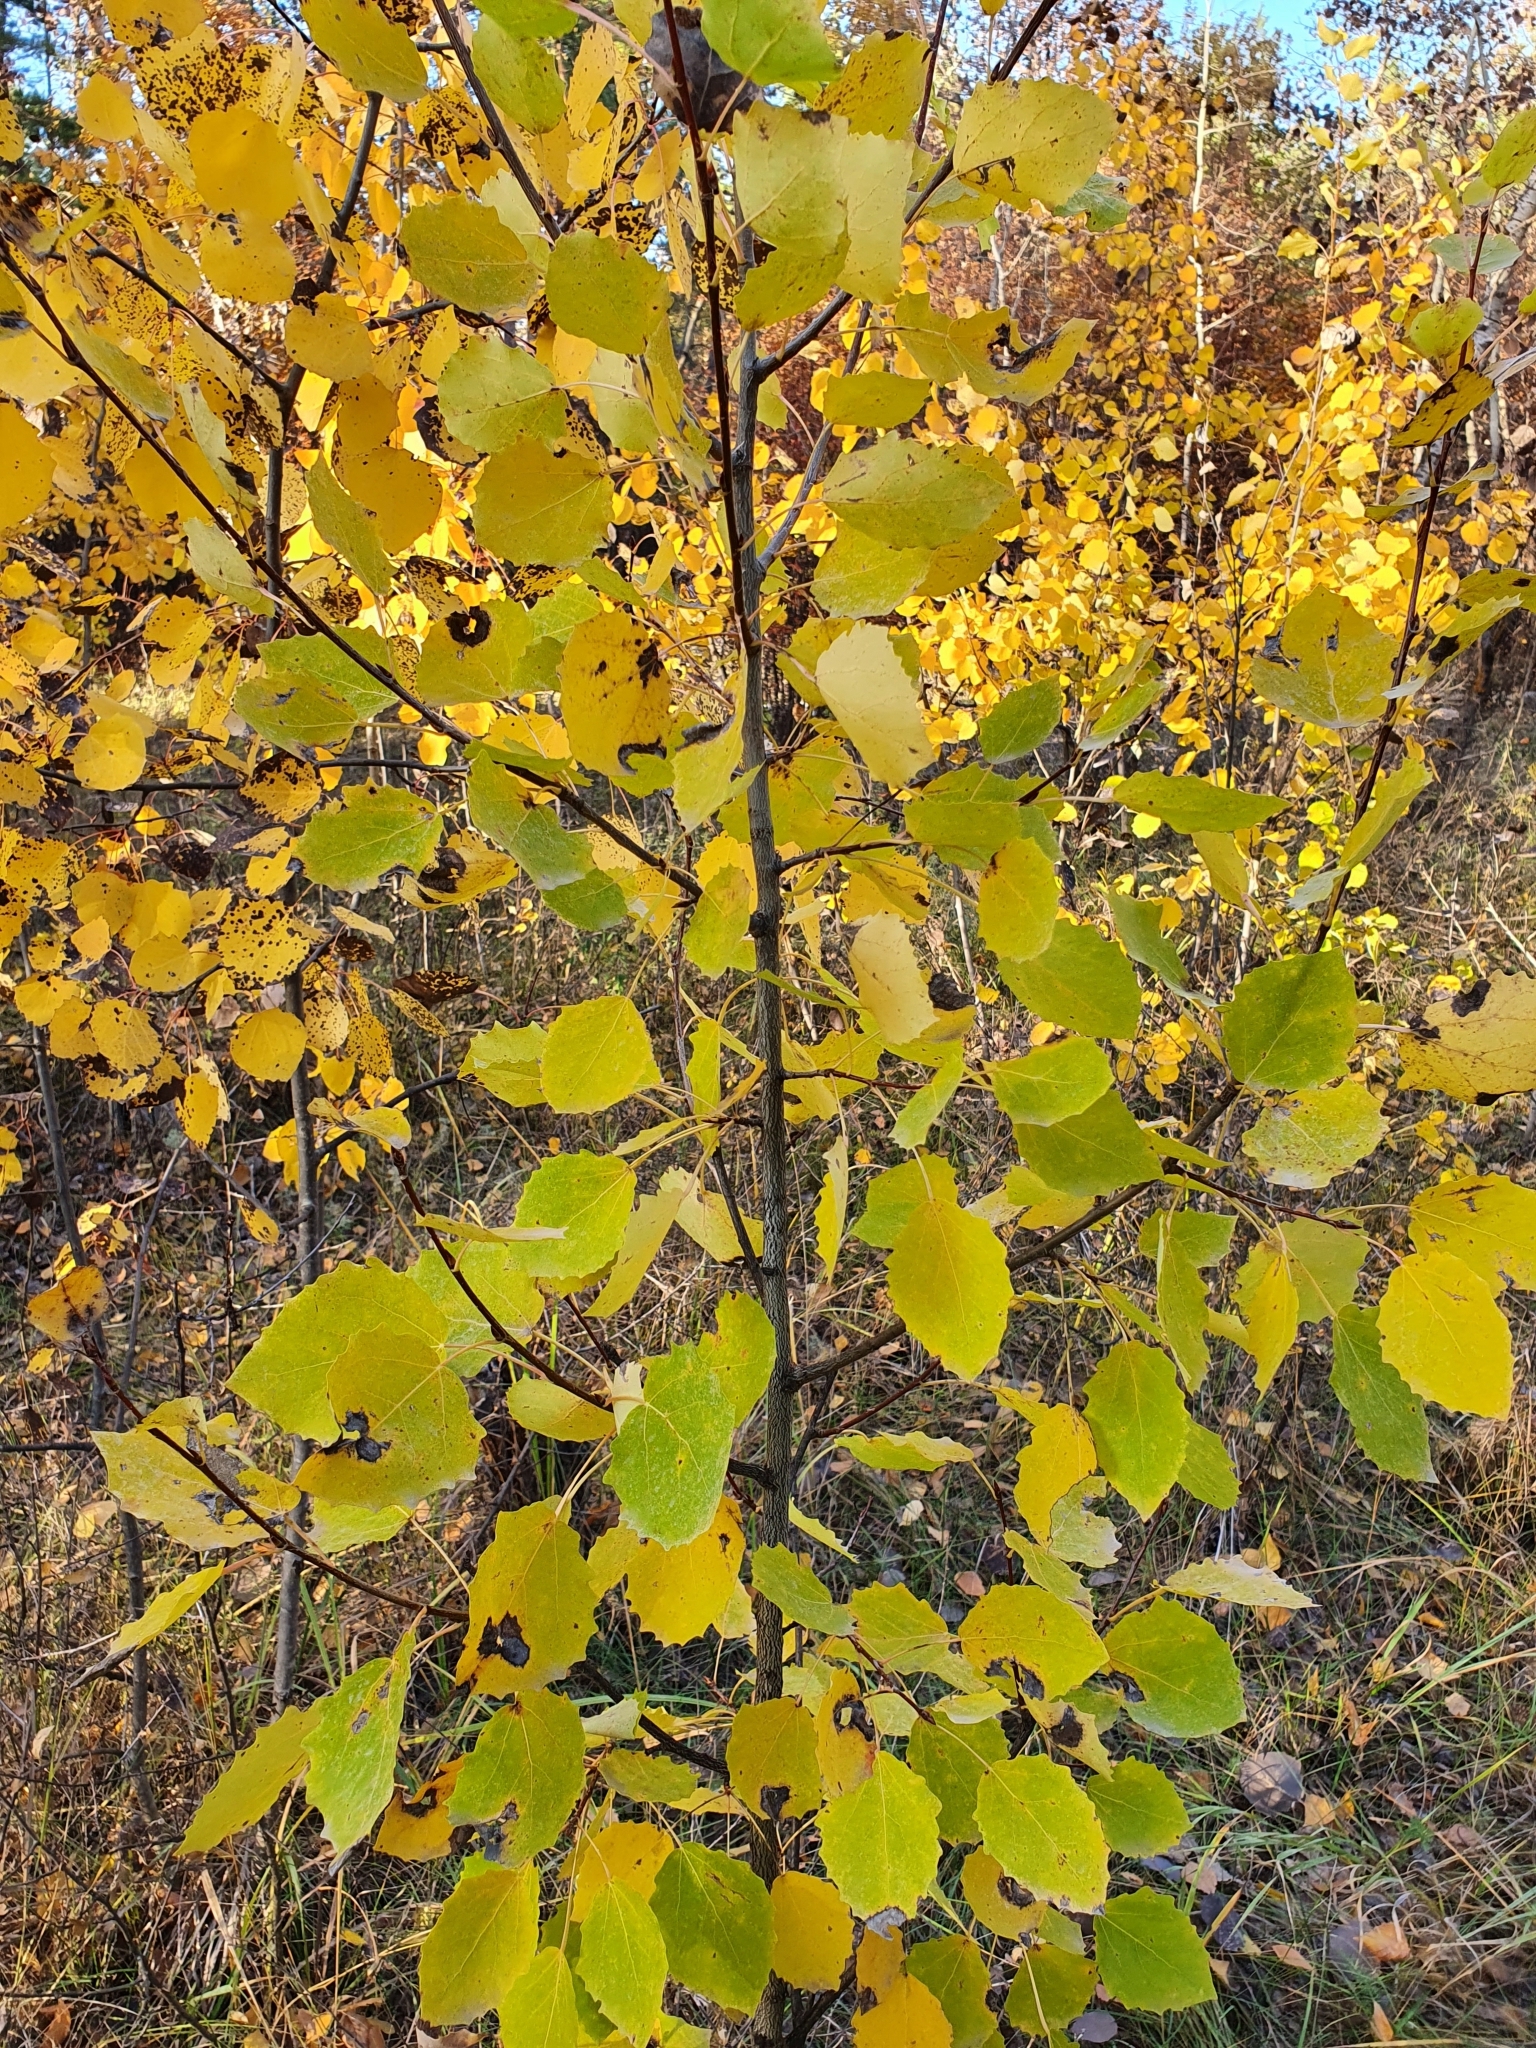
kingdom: Plantae
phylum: Tracheophyta
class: Magnoliopsida
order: Malpighiales
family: Salicaceae
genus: Populus
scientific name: Populus tremula
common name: European aspen
